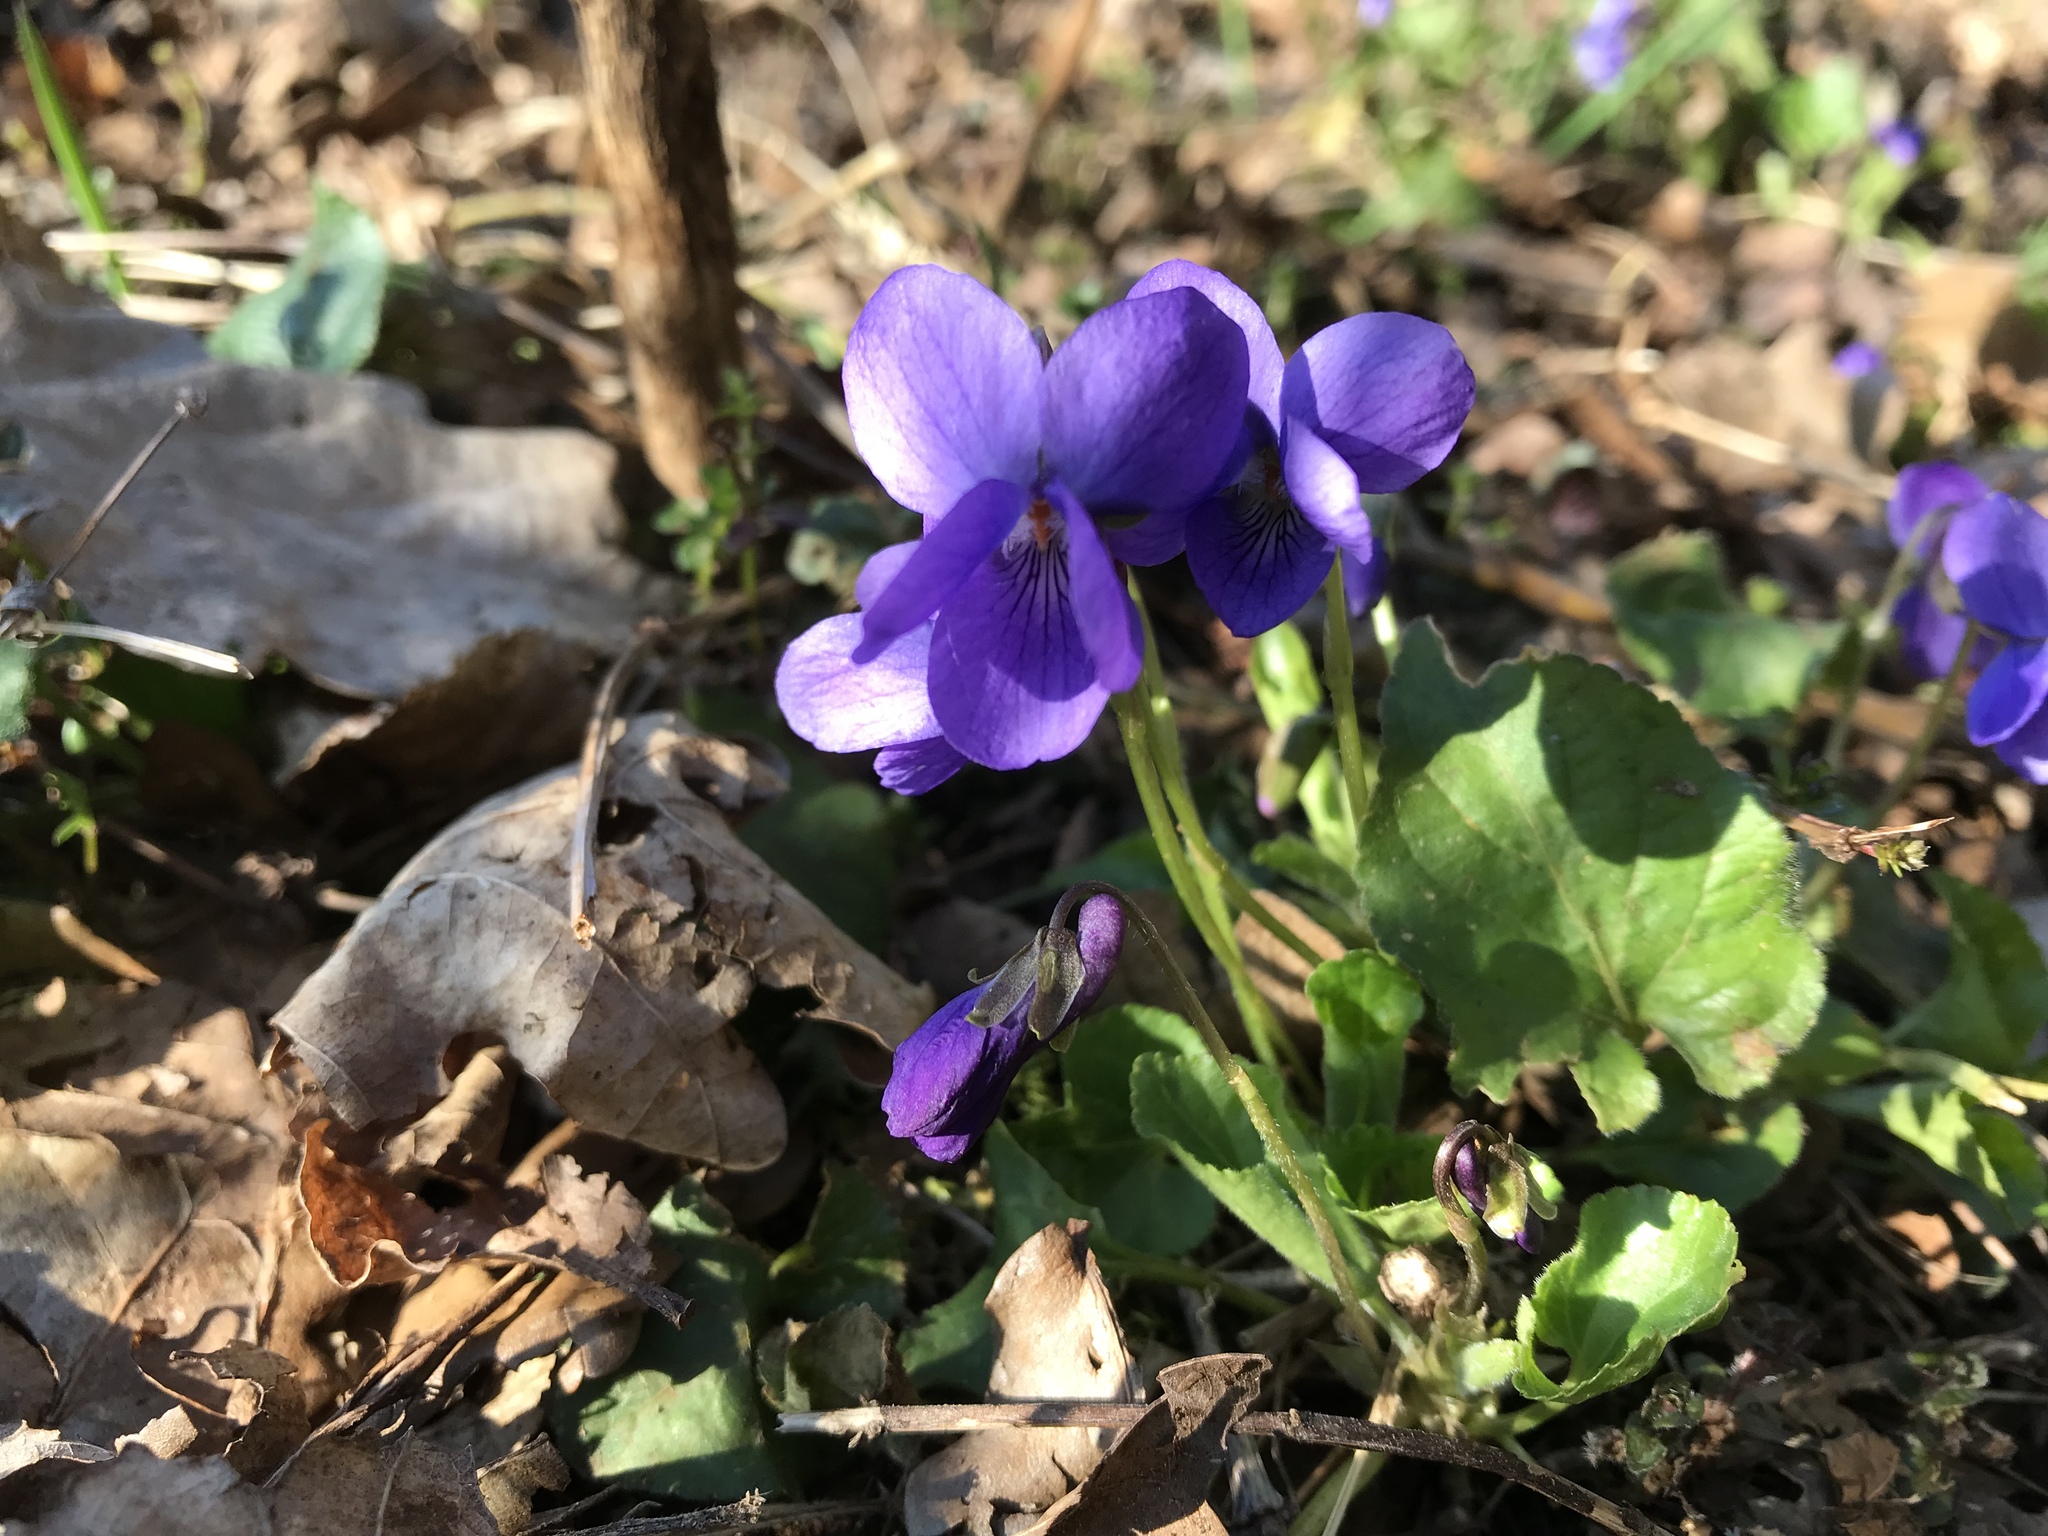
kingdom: Plantae
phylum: Tracheophyta
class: Magnoliopsida
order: Malpighiales
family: Violaceae
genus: Viola
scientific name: Viola odorata
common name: Sweet violet
